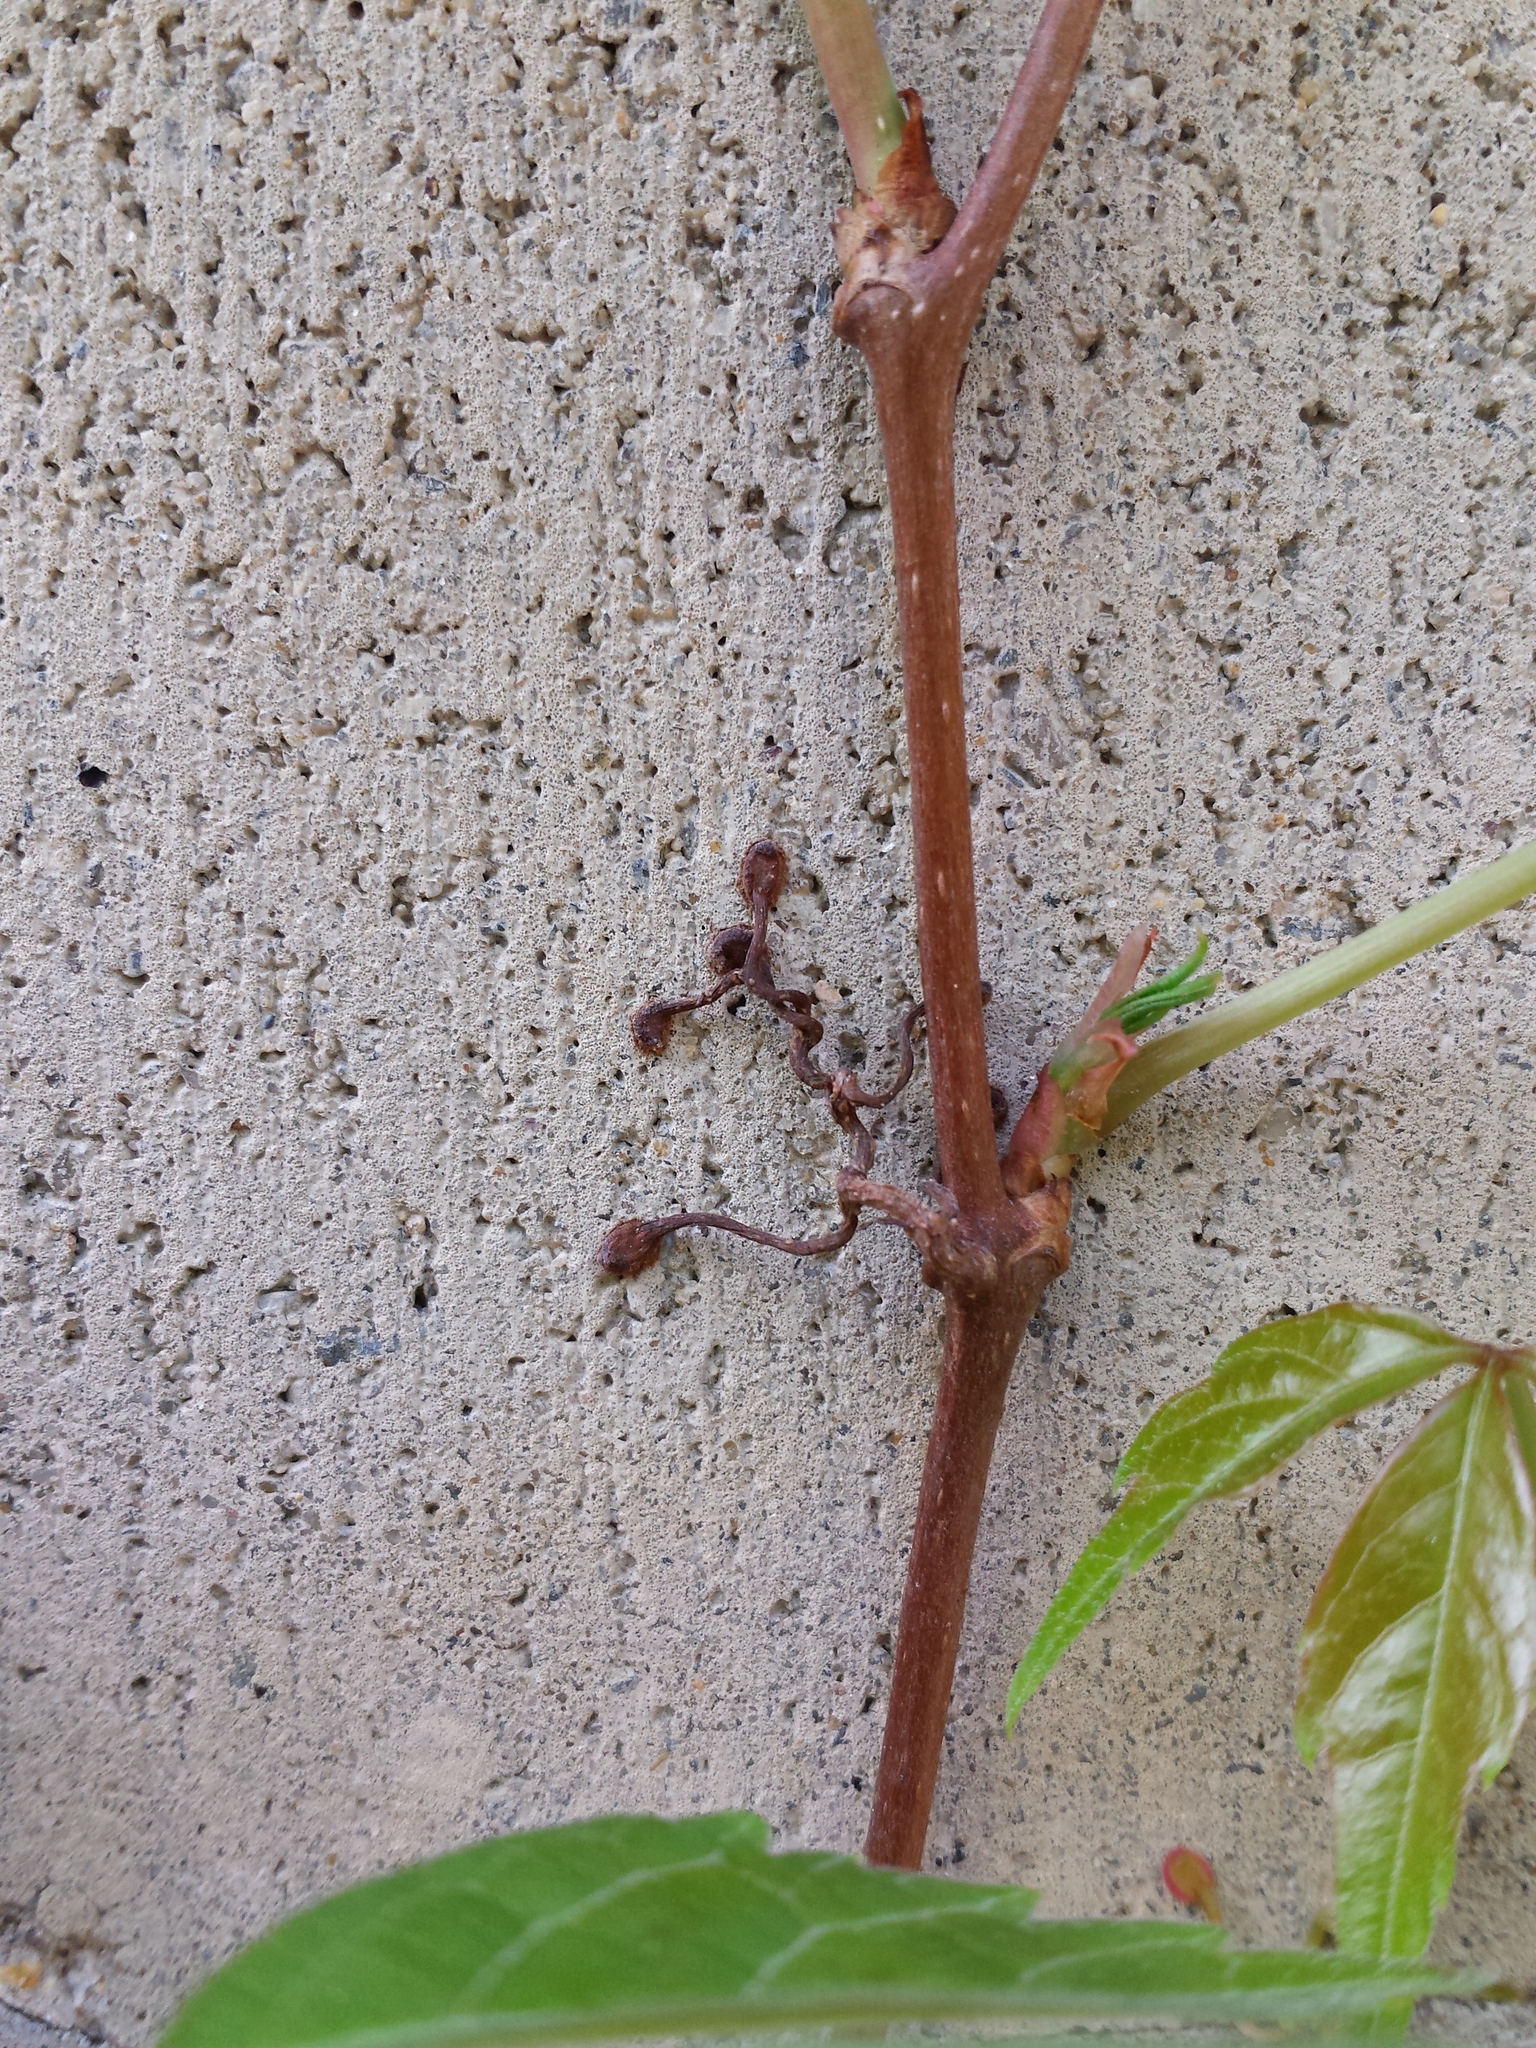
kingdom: Plantae
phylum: Tracheophyta
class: Magnoliopsida
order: Vitales
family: Vitaceae
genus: Parthenocissus
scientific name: Parthenocissus quinquefolia
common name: Virginia-creeper
